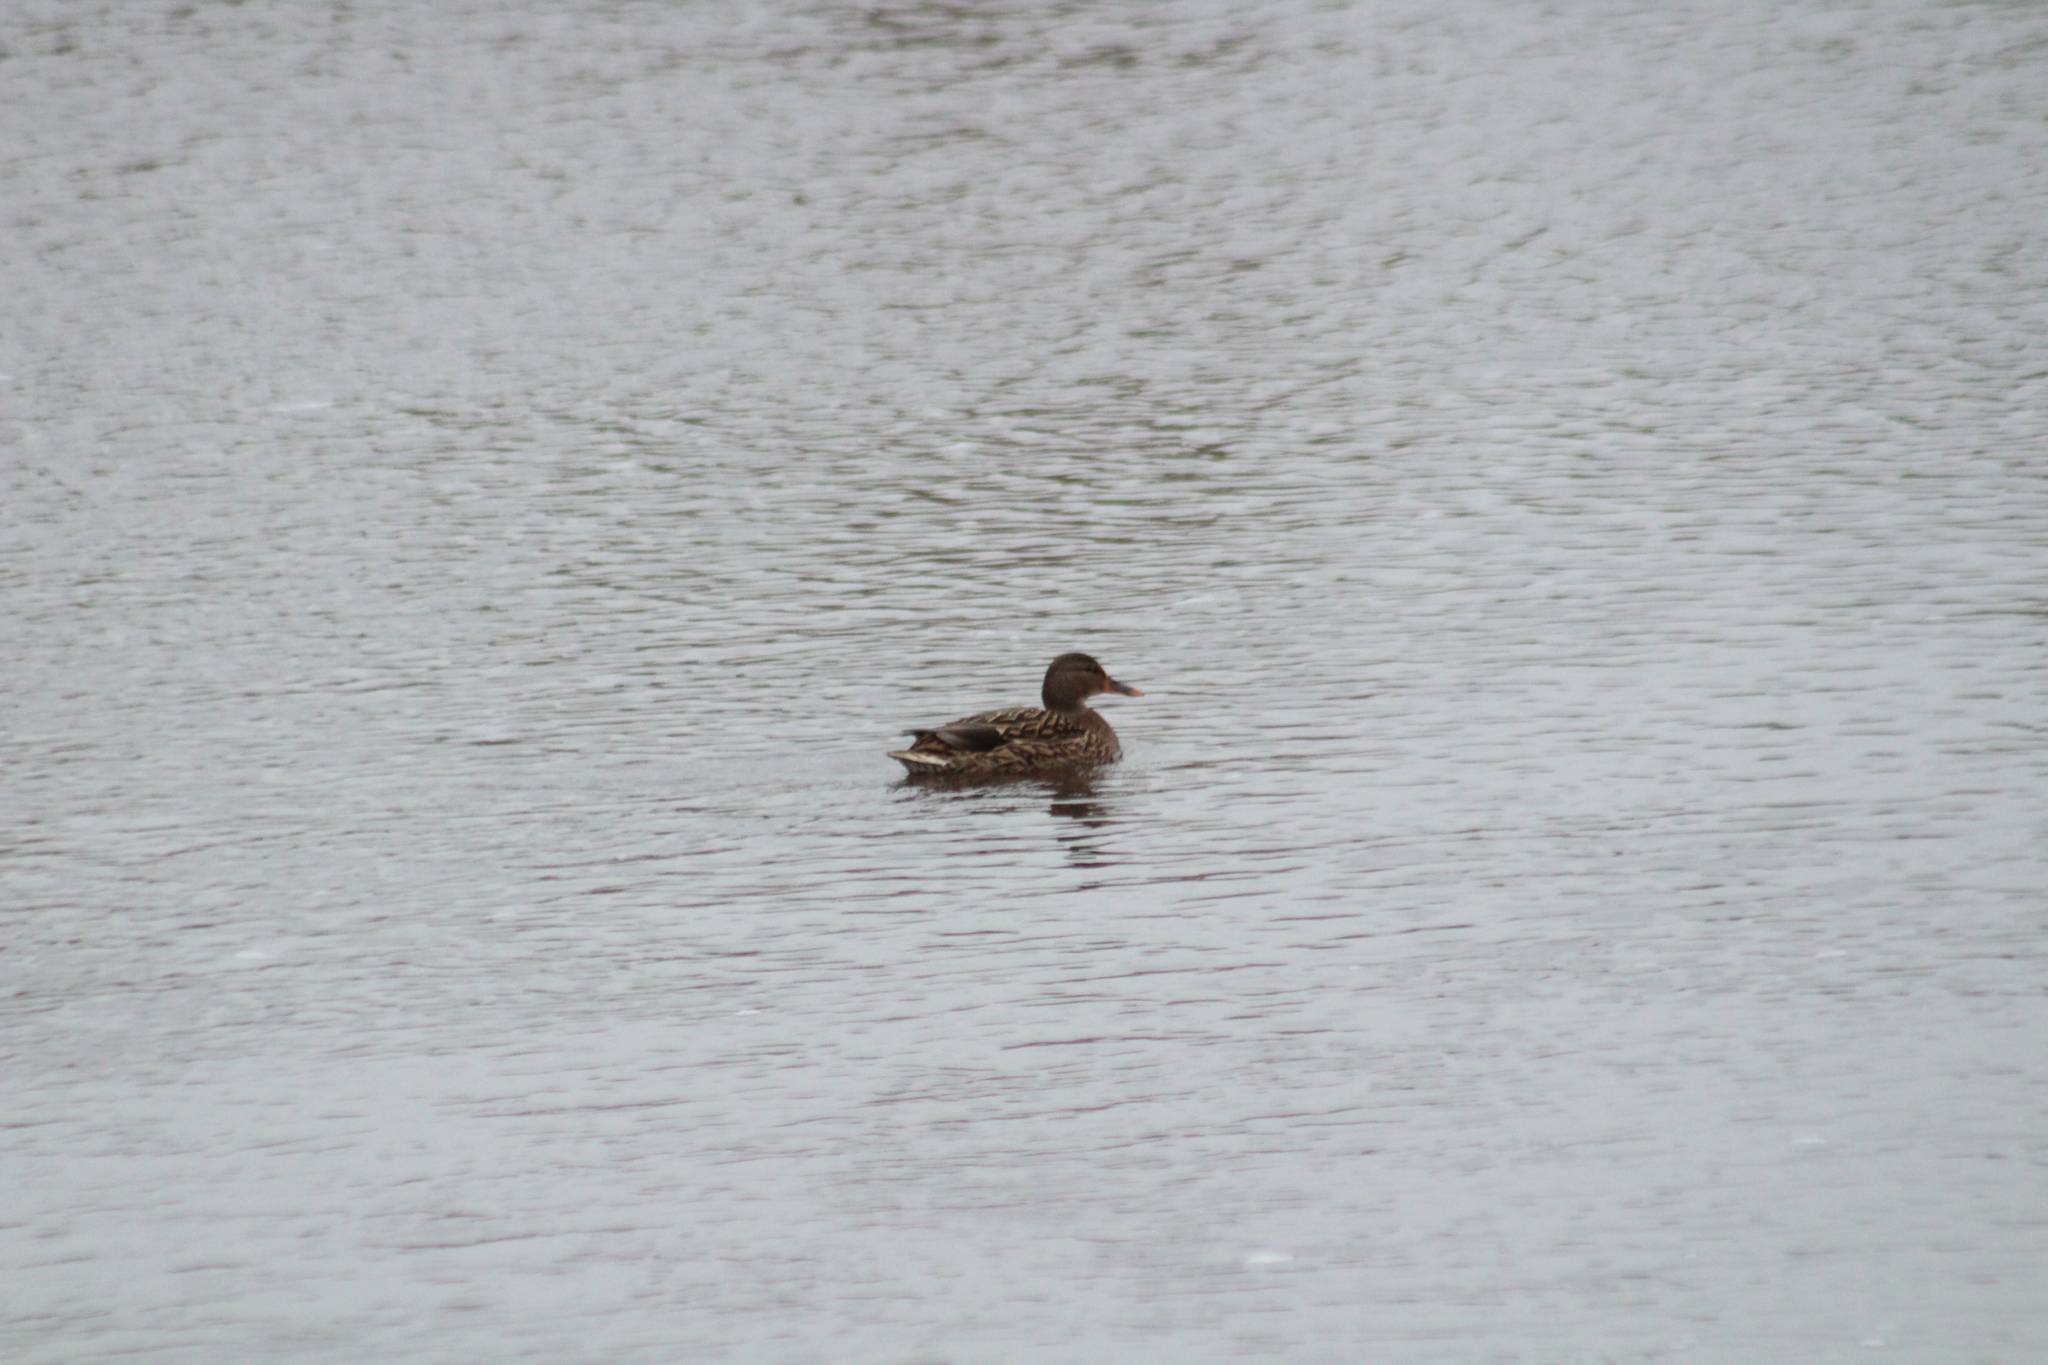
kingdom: Animalia
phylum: Chordata
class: Aves
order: Anseriformes
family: Anatidae
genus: Anas
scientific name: Anas platyrhynchos
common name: Mallard
